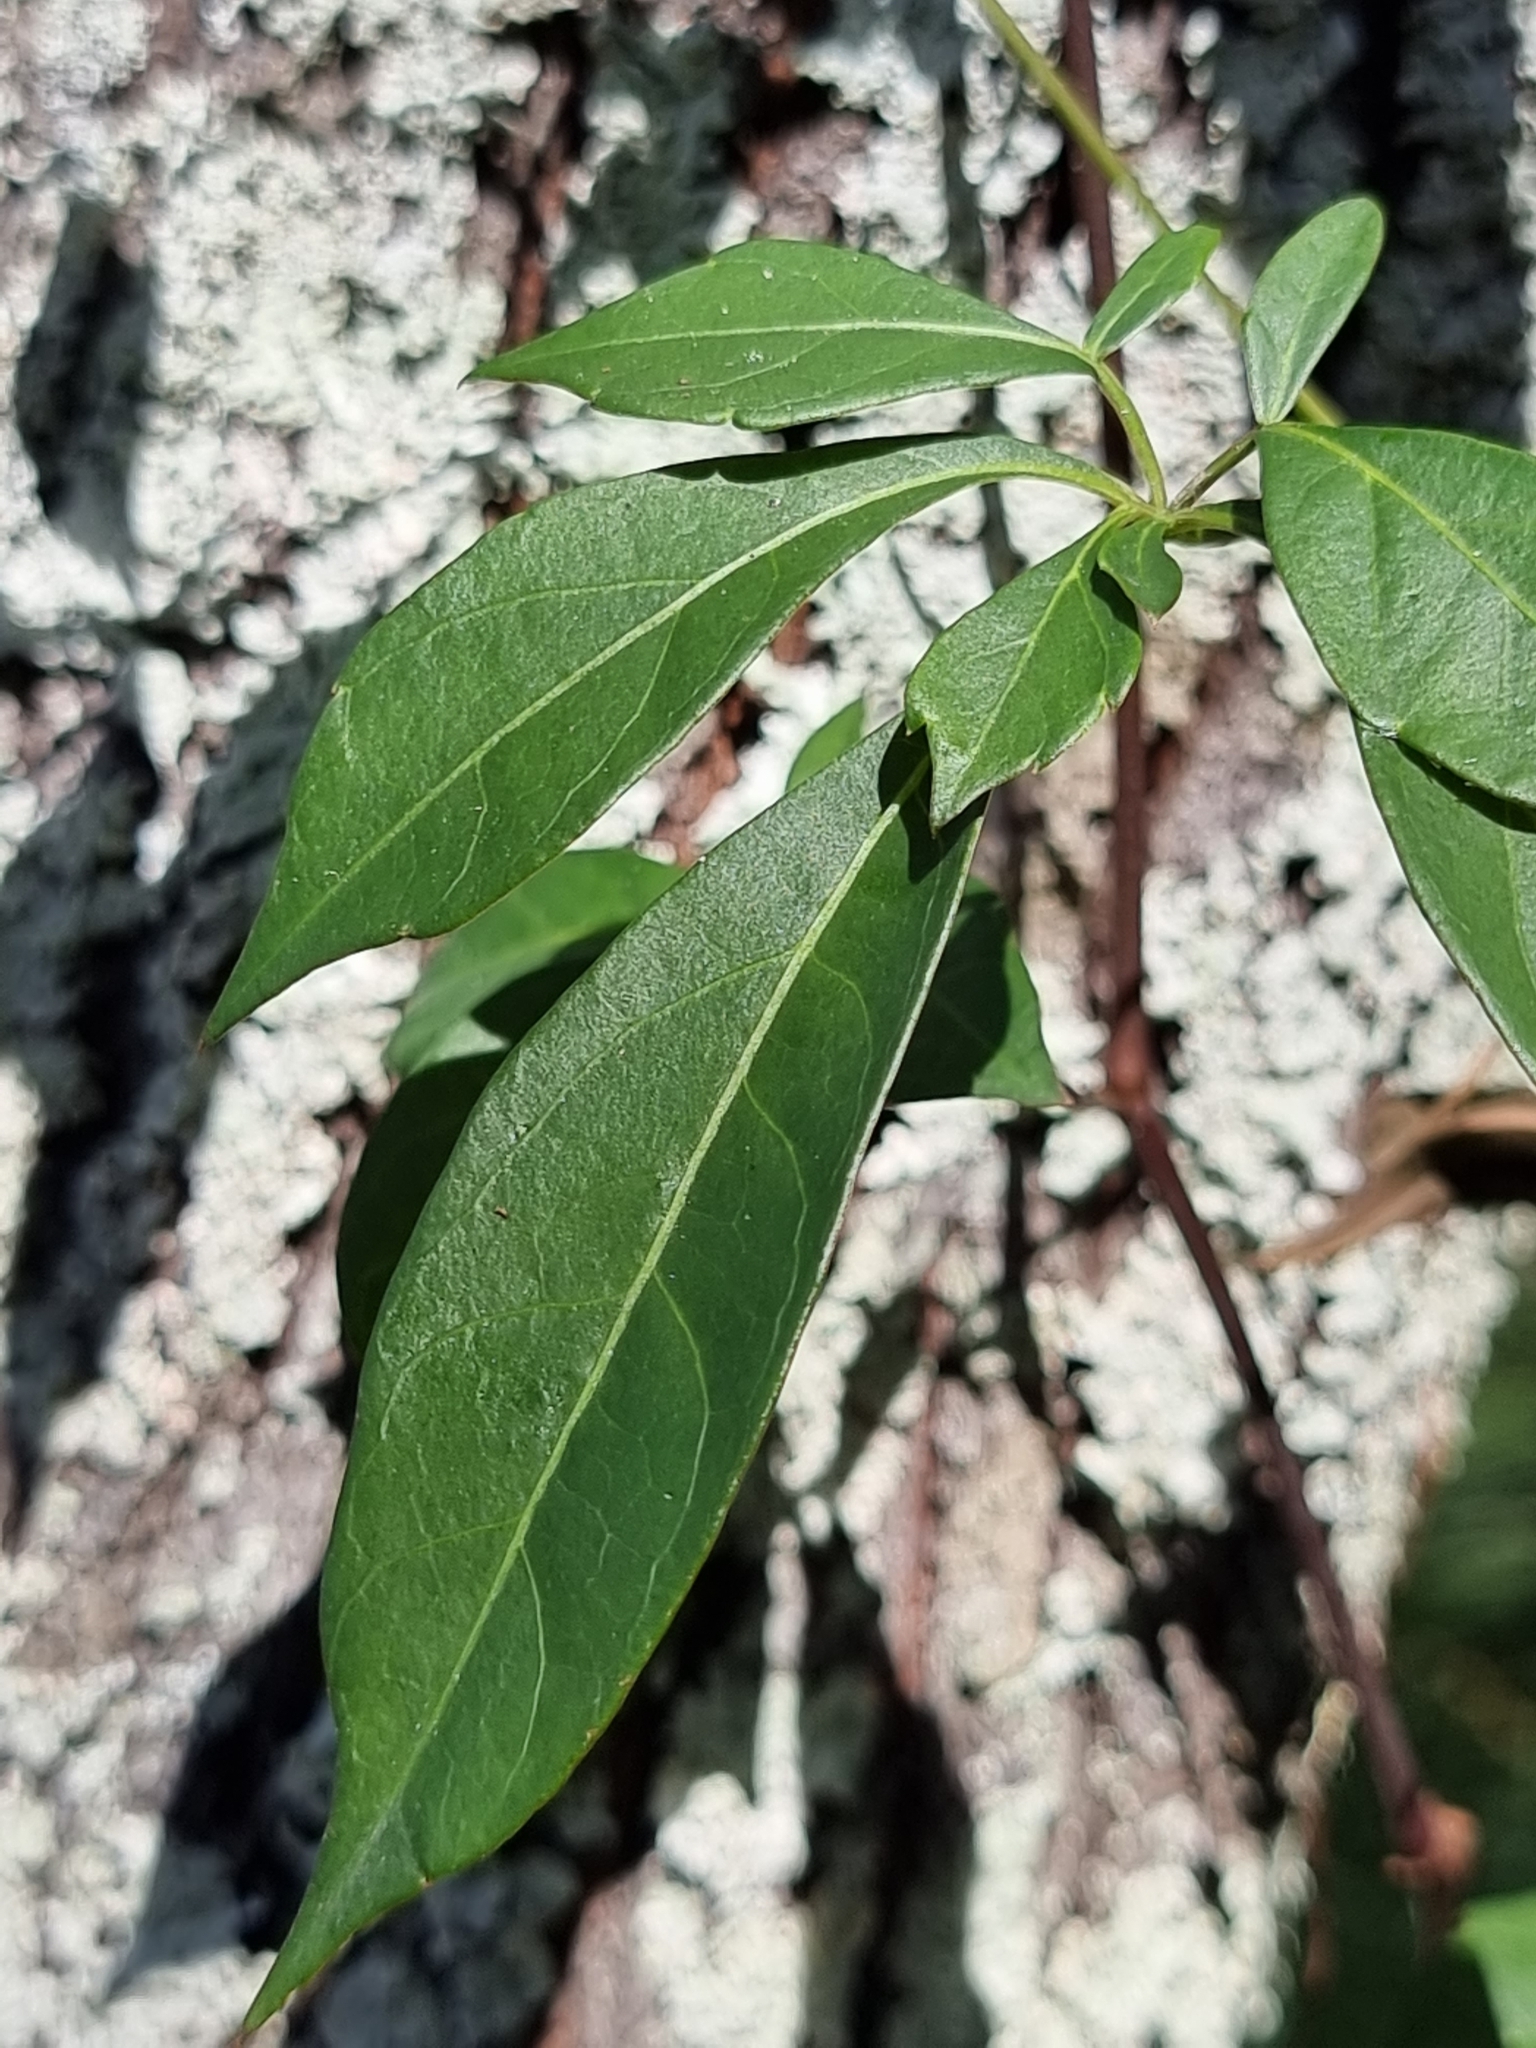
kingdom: Plantae
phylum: Tracheophyta
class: Magnoliopsida
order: Vitales
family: Vitaceae
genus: Clematicissus
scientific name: Clematicissus opaca
